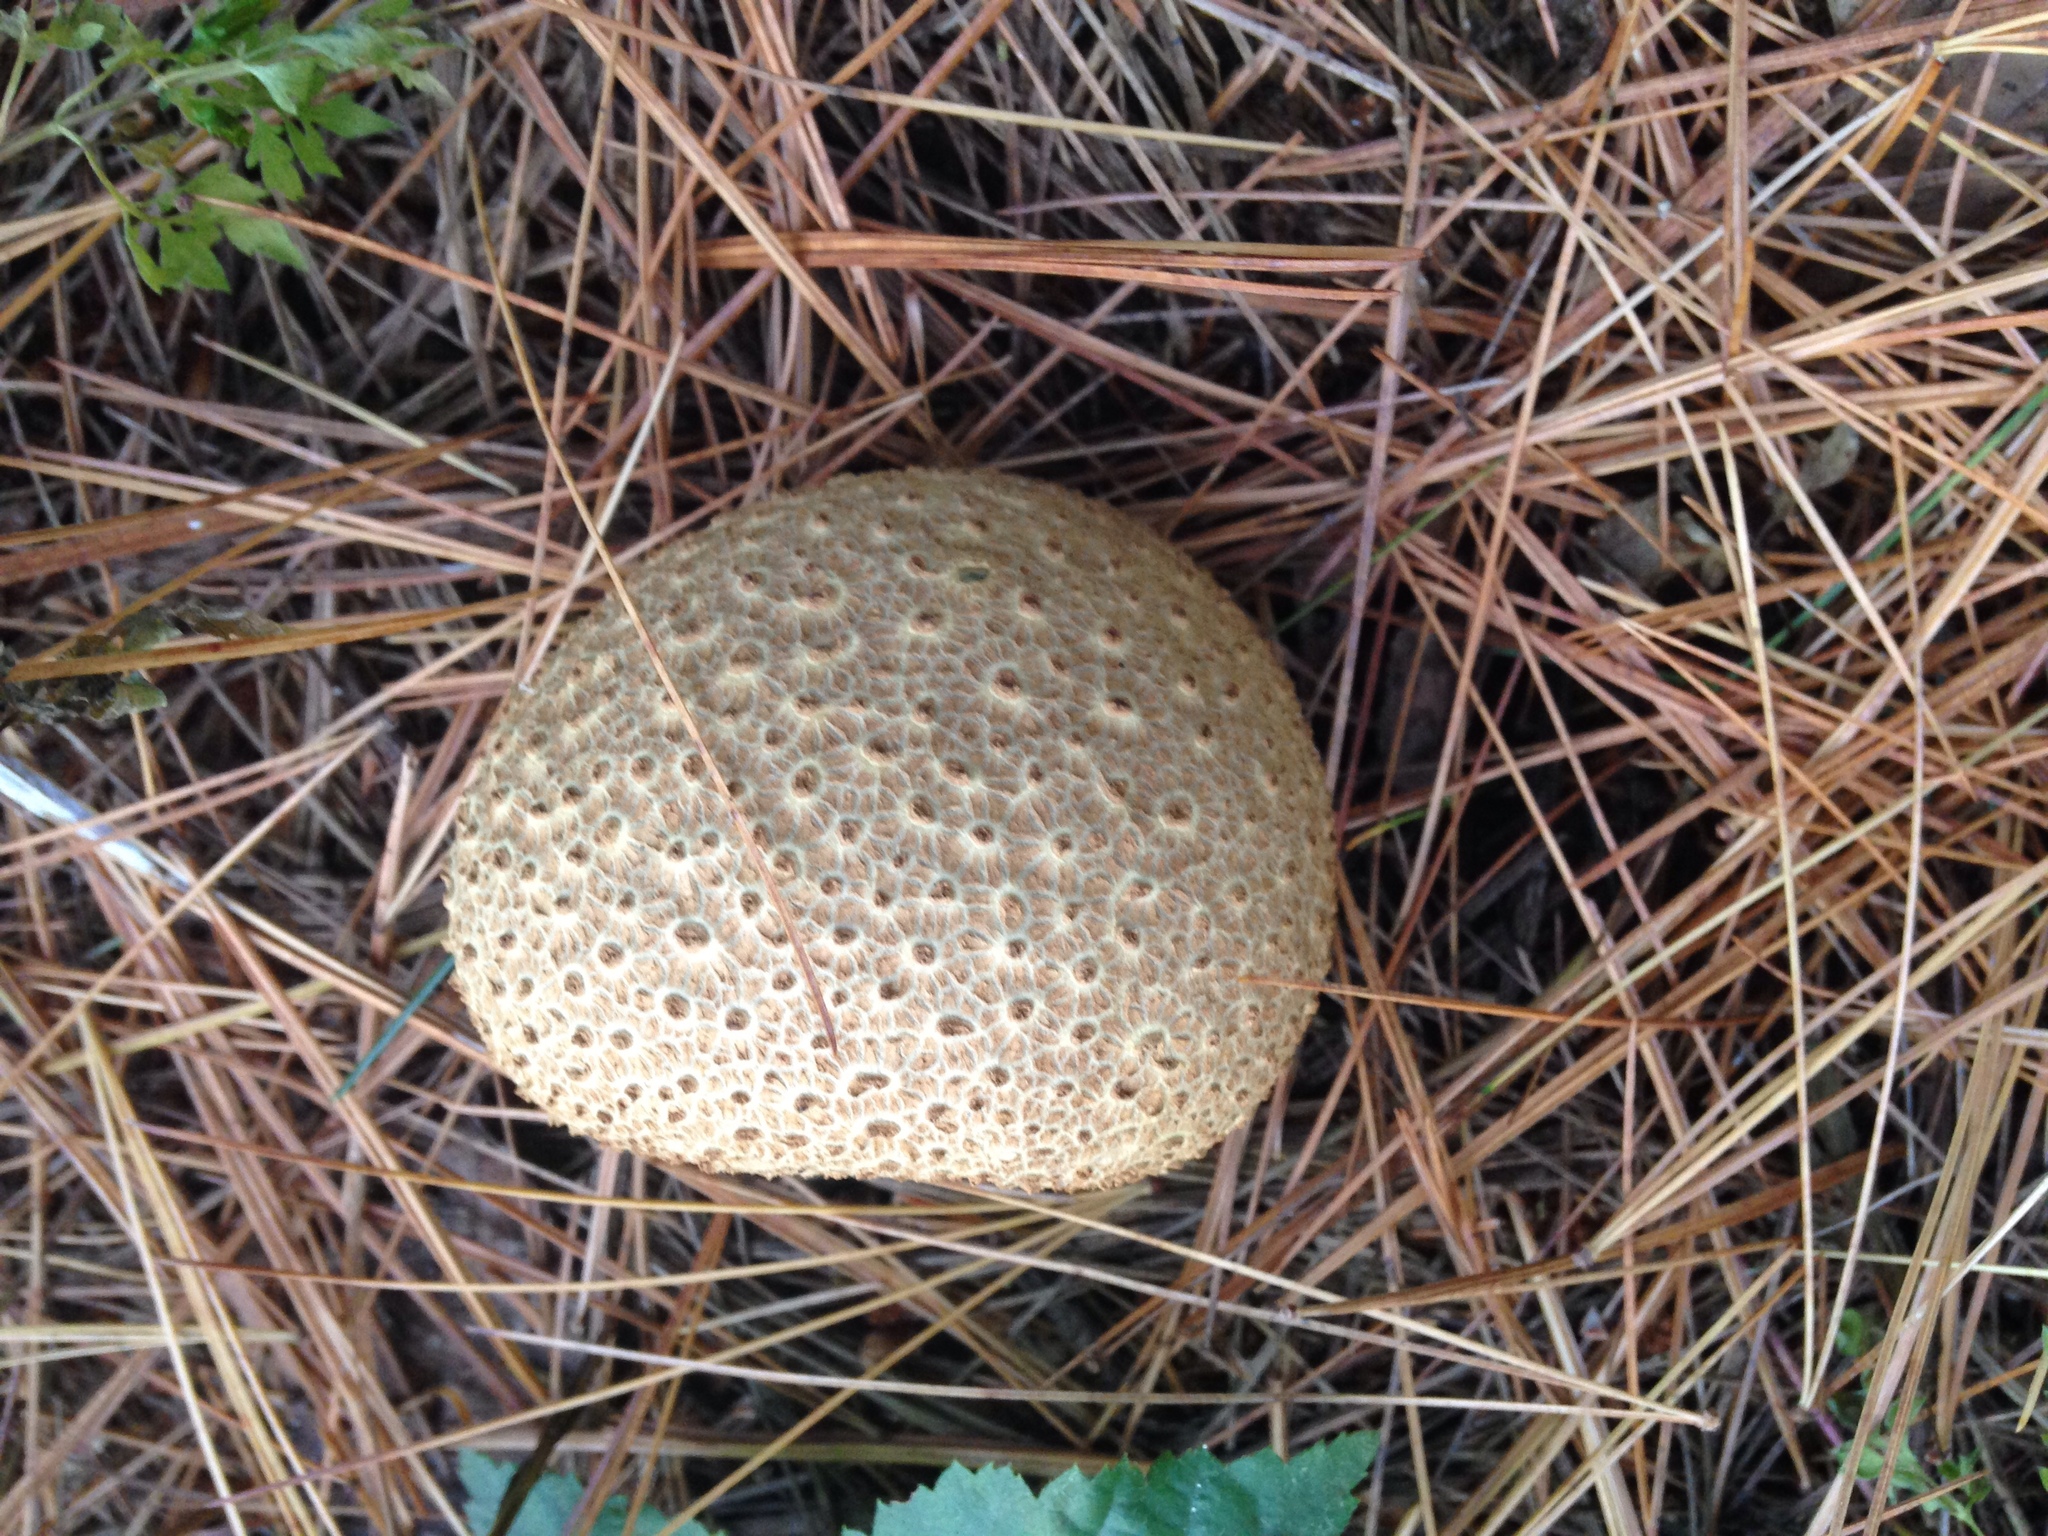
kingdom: Fungi
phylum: Basidiomycota
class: Agaricomycetes
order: Boletales
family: Sclerodermataceae
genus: Scleroderma
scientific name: Scleroderma citrinum
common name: Common earthball
